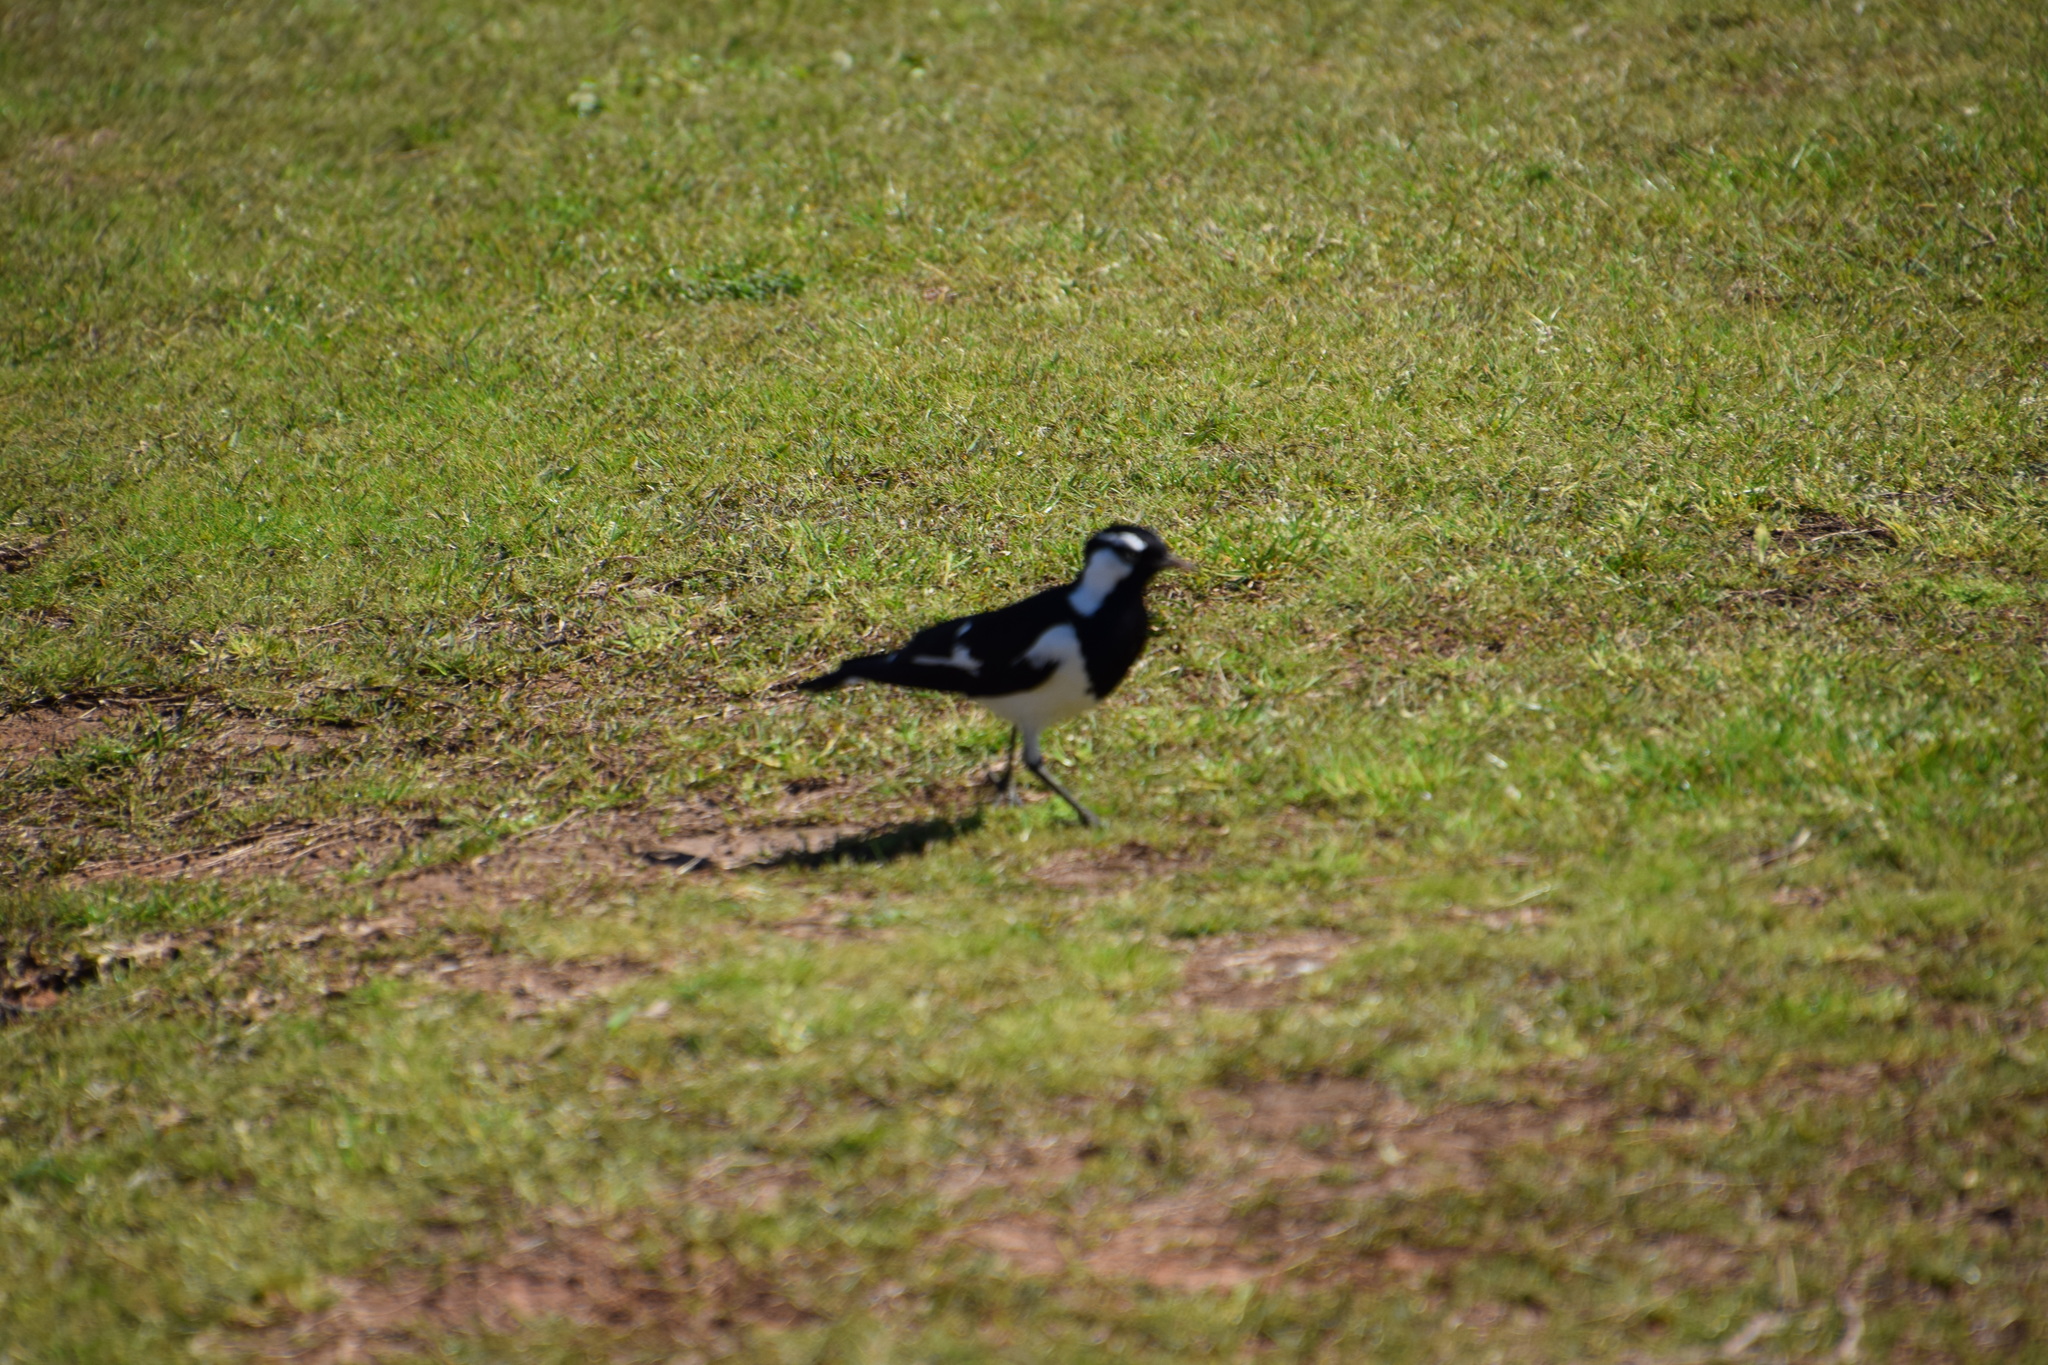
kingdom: Animalia
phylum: Chordata
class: Aves
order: Passeriformes
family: Monarchidae
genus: Grallina
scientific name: Grallina cyanoleuca
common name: Magpie-lark
